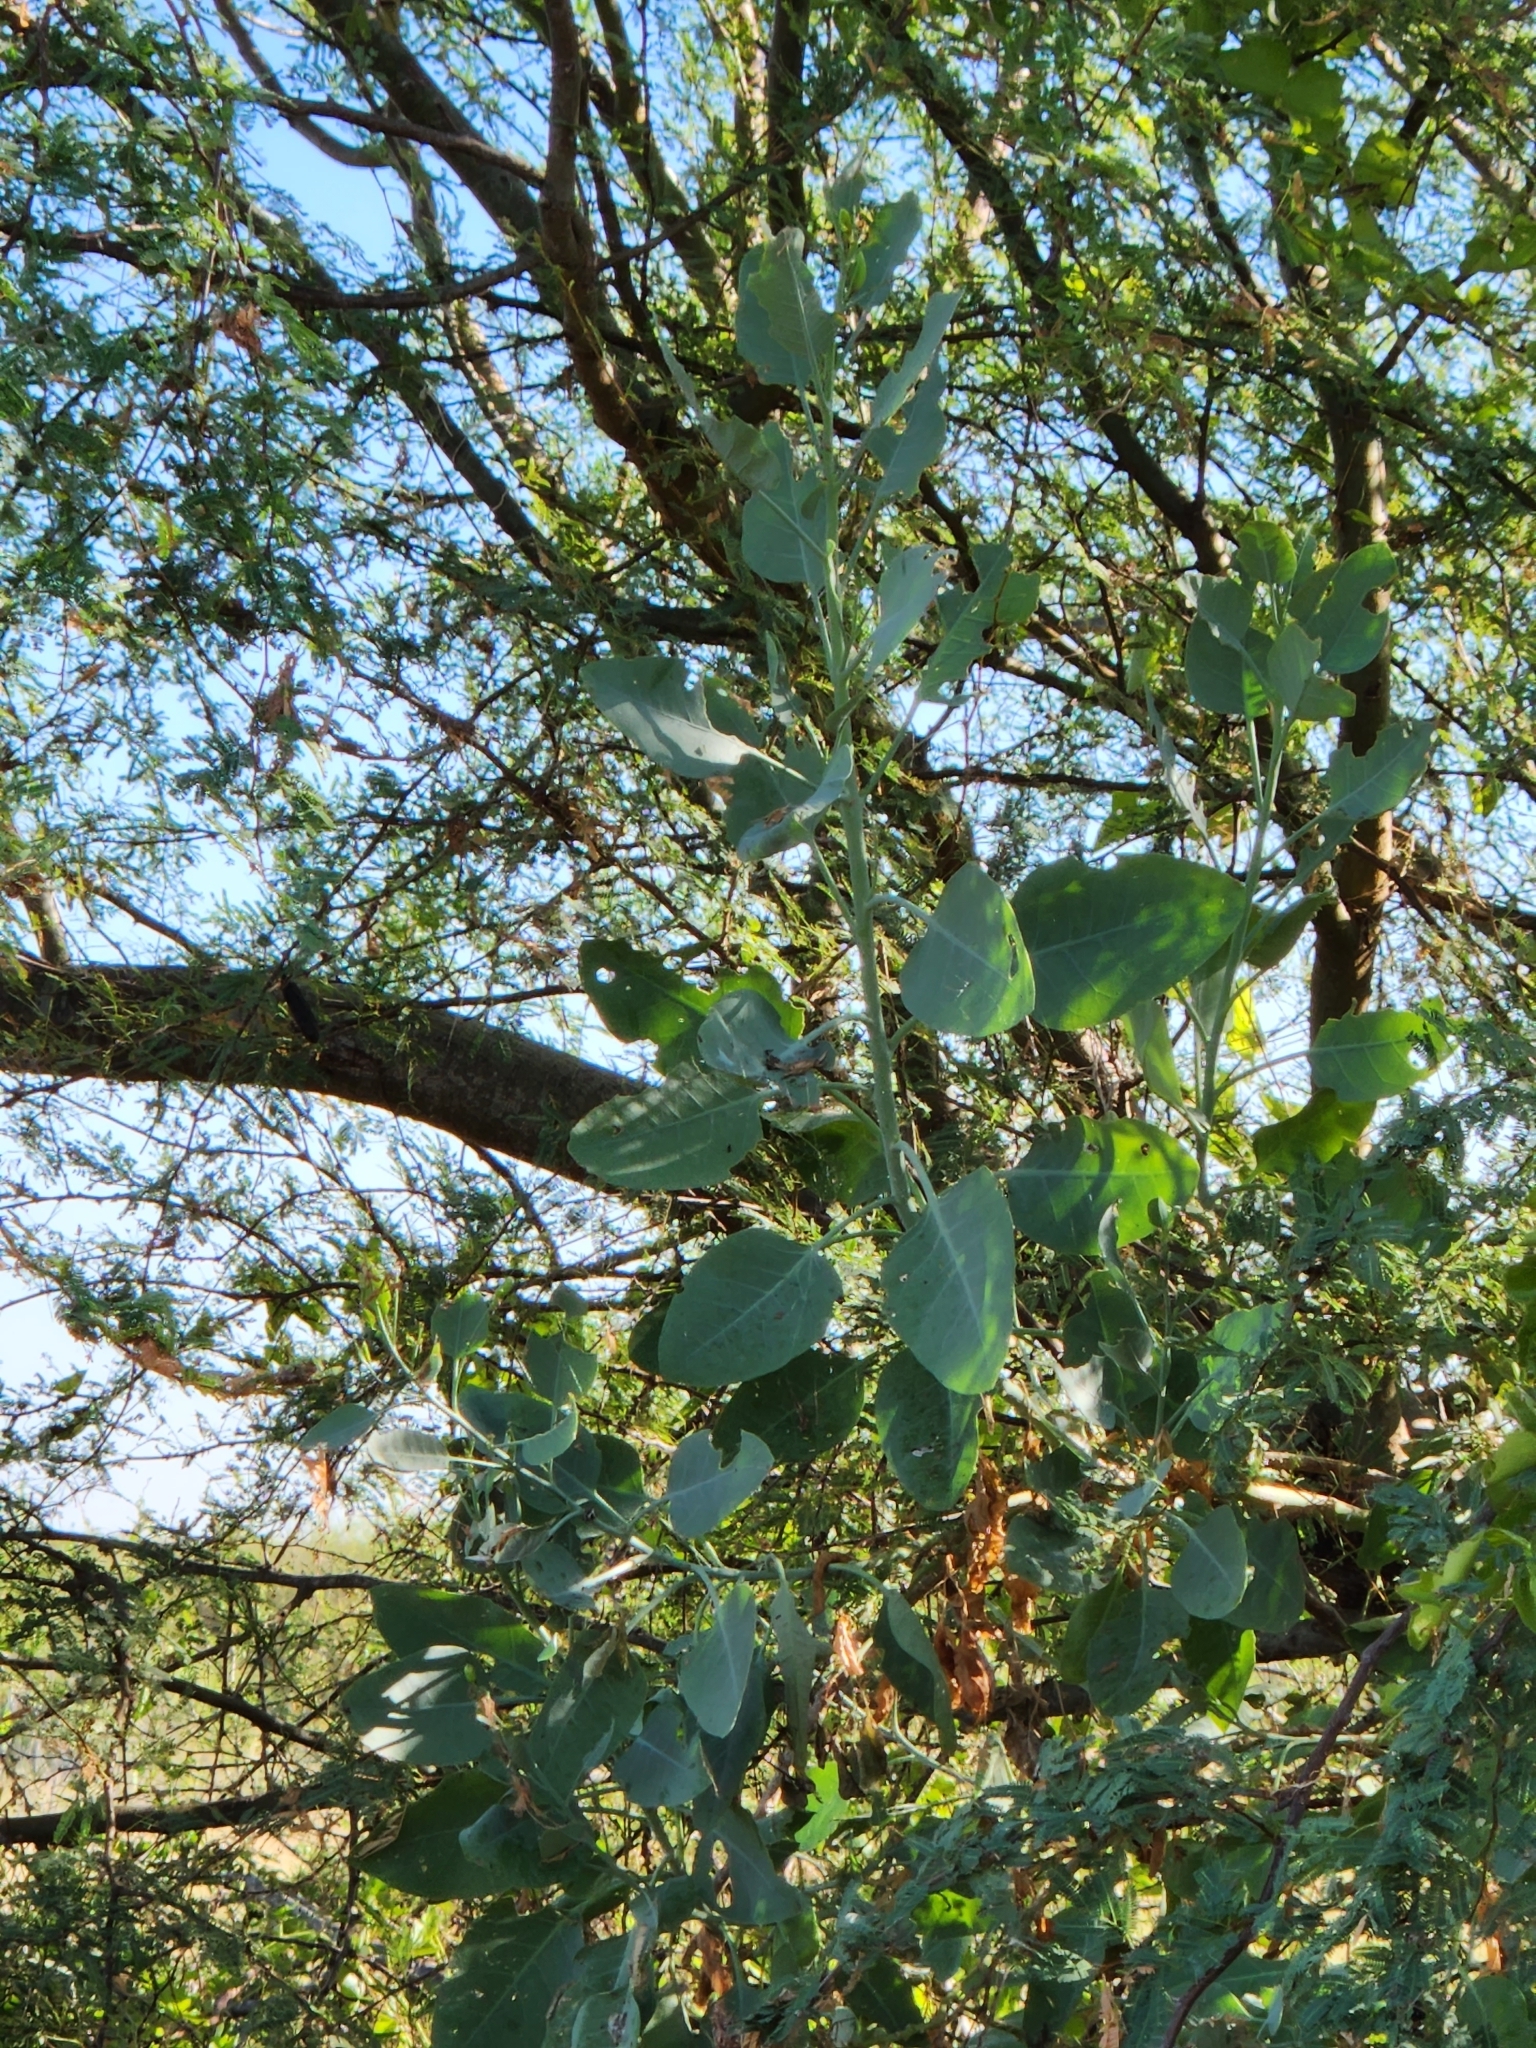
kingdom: Plantae
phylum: Tracheophyta
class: Magnoliopsida
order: Solanales
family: Solanaceae
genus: Nicotiana
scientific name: Nicotiana glauca
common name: Tree tobacco
